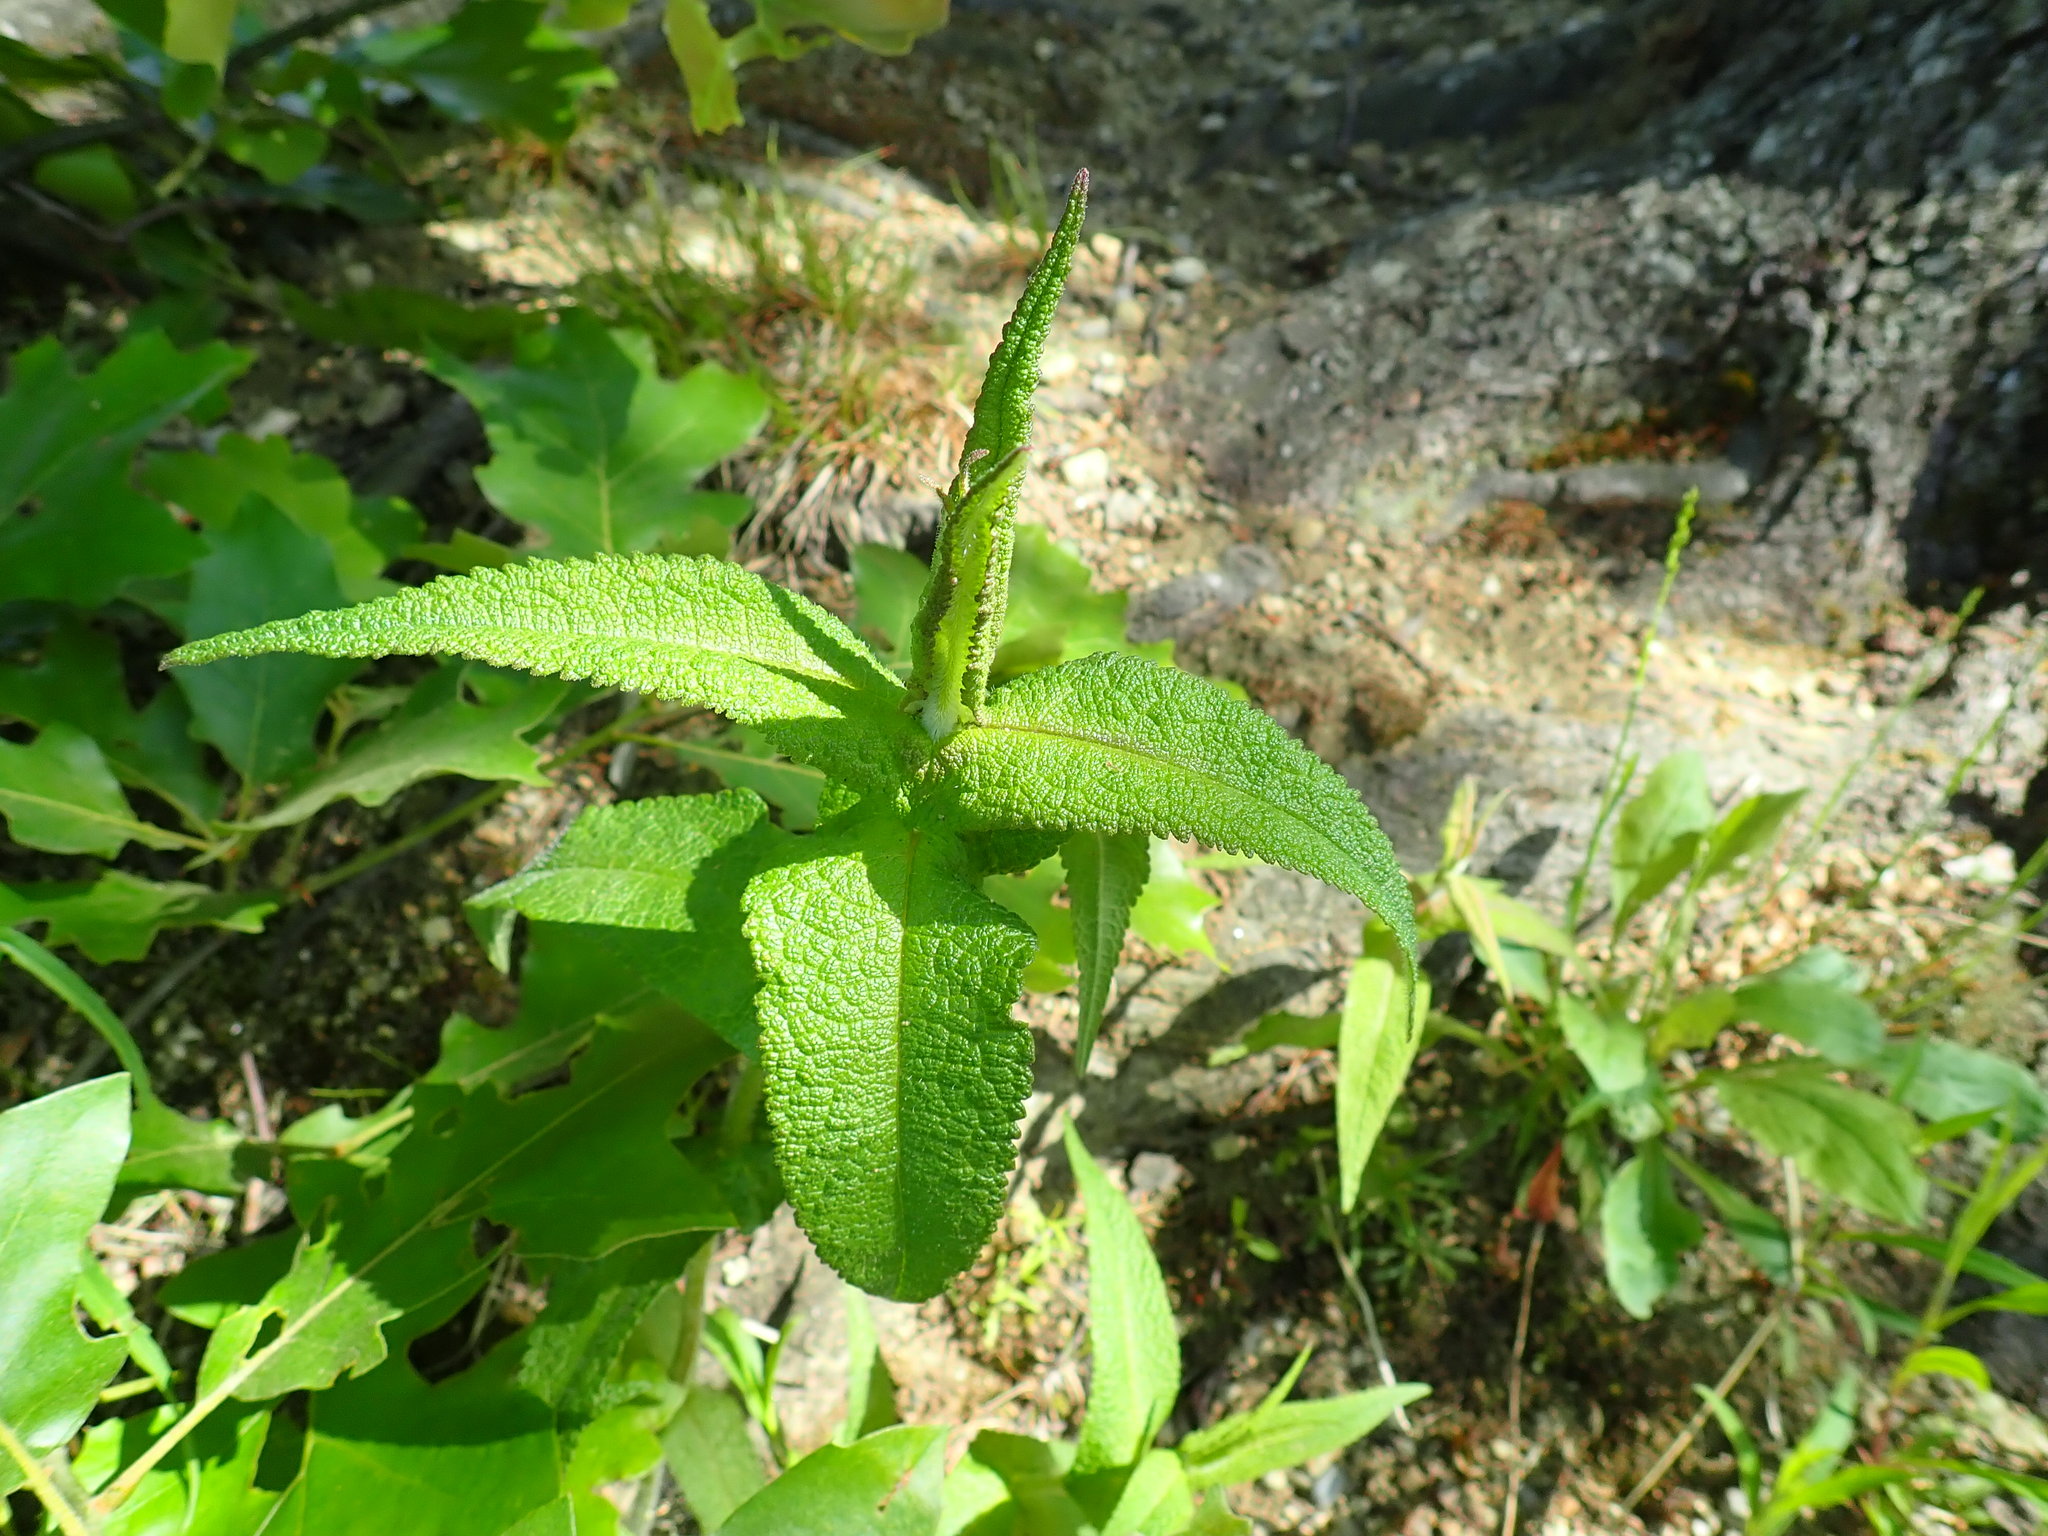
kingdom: Plantae
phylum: Tracheophyta
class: Magnoliopsida
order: Asterales
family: Asteraceae
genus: Eupatorium
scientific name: Eupatorium perfoliatum
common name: Boneset
